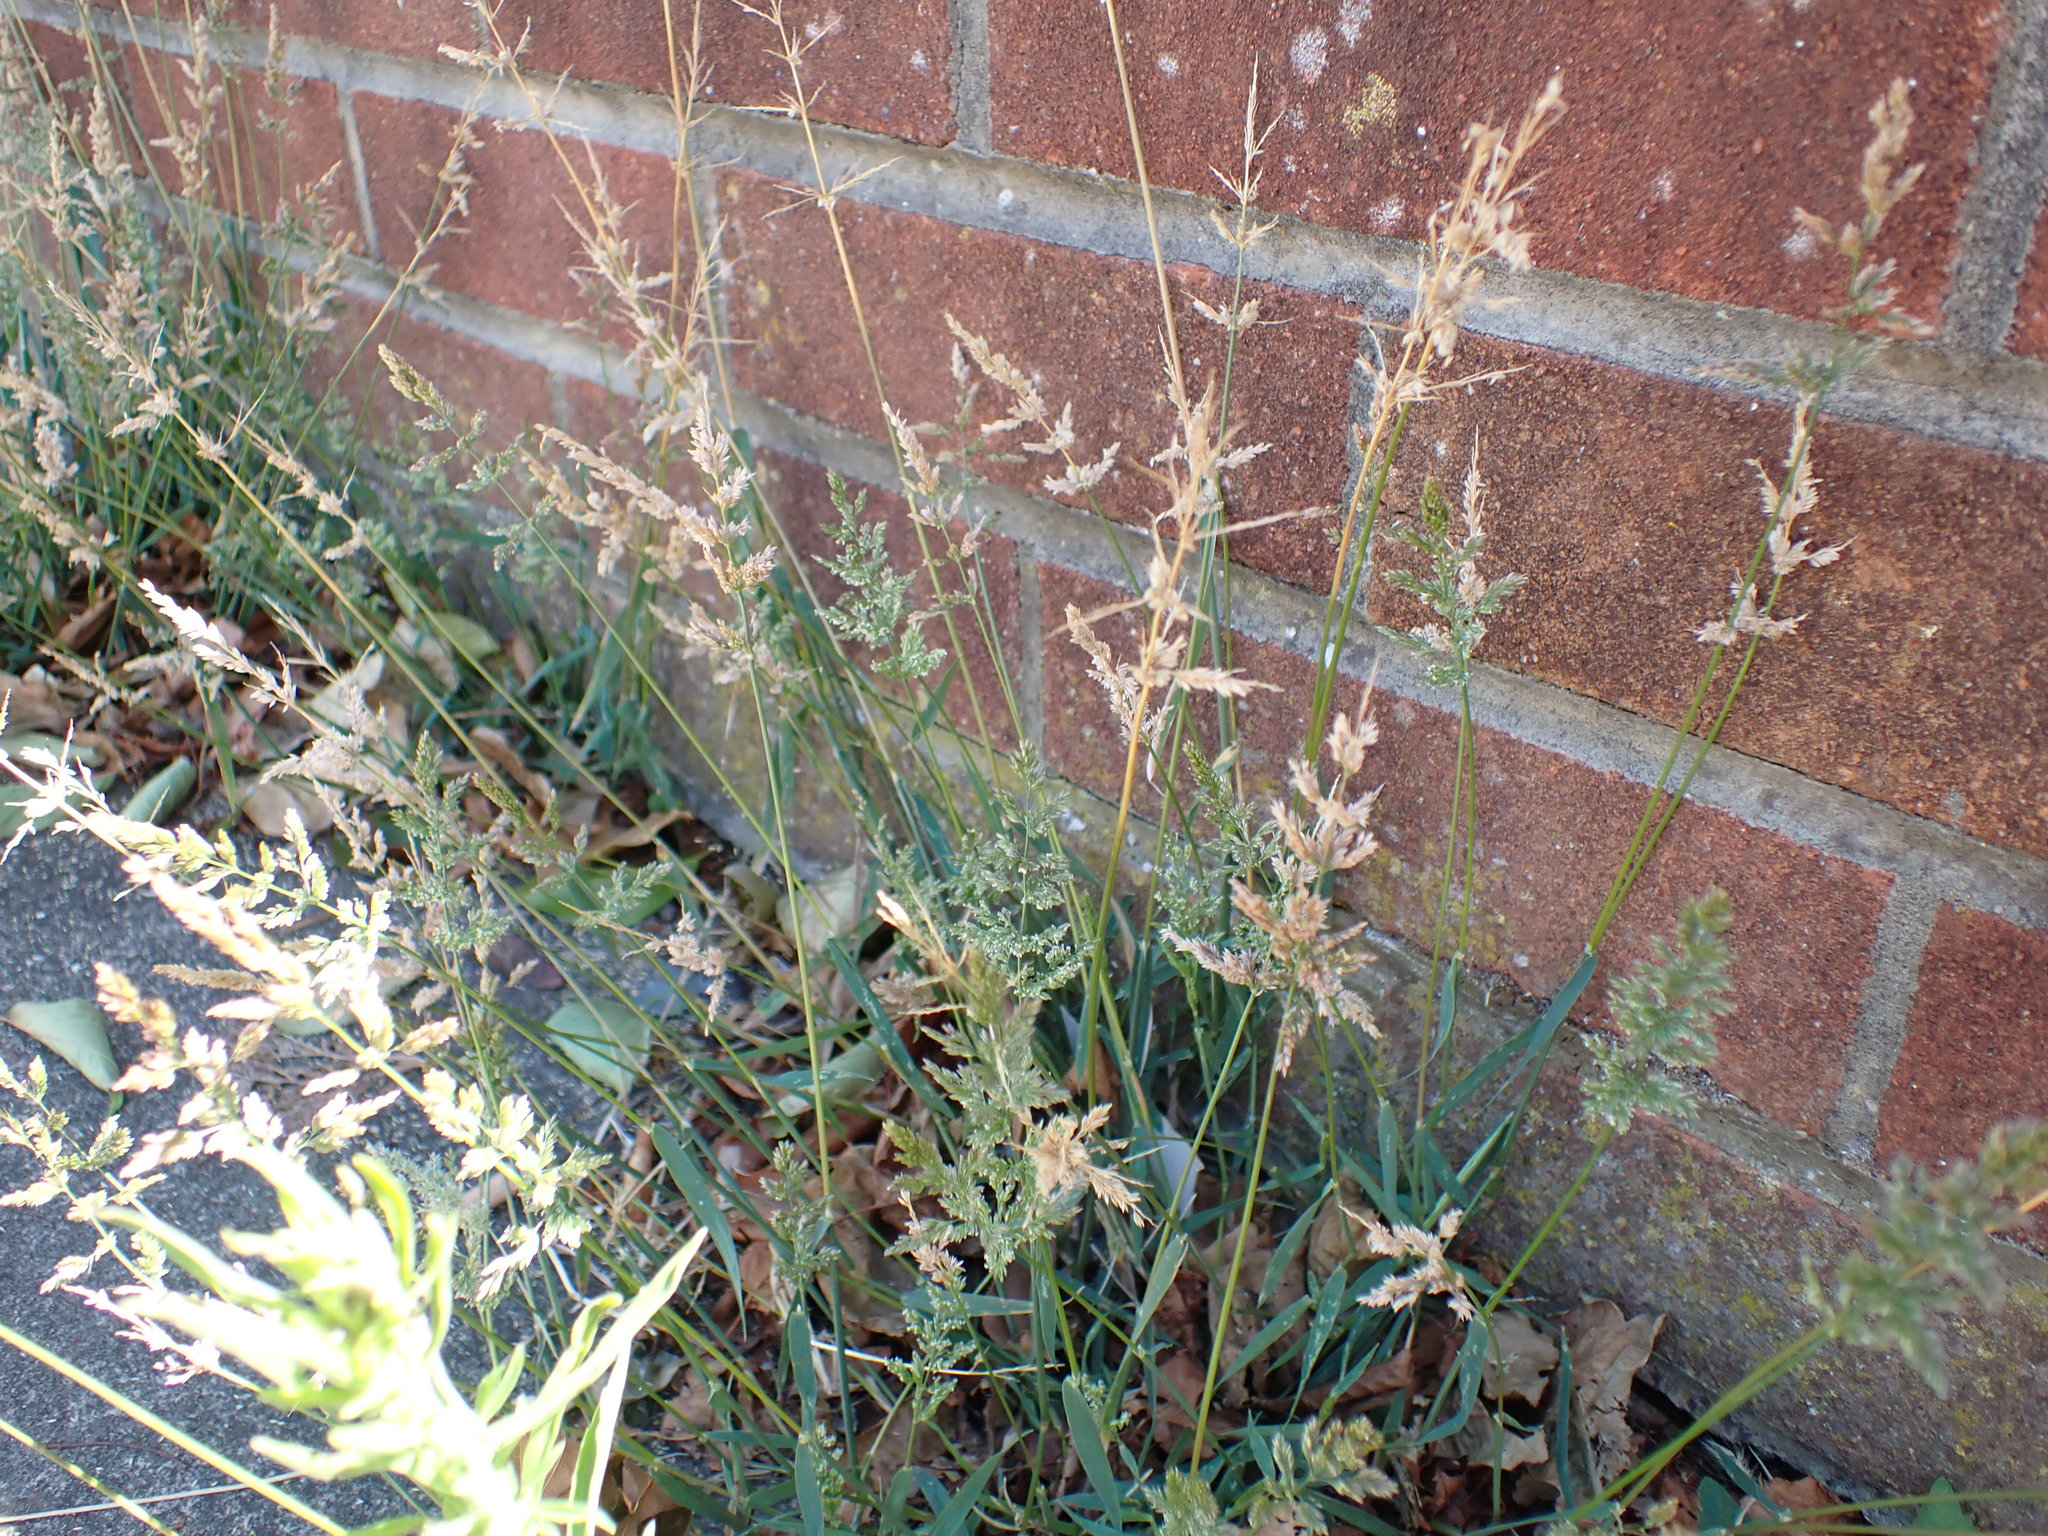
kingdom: Plantae
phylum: Tracheophyta
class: Liliopsida
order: Poales
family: Poaceae
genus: Polypogon
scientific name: Polypogon viridis
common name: Water bent
